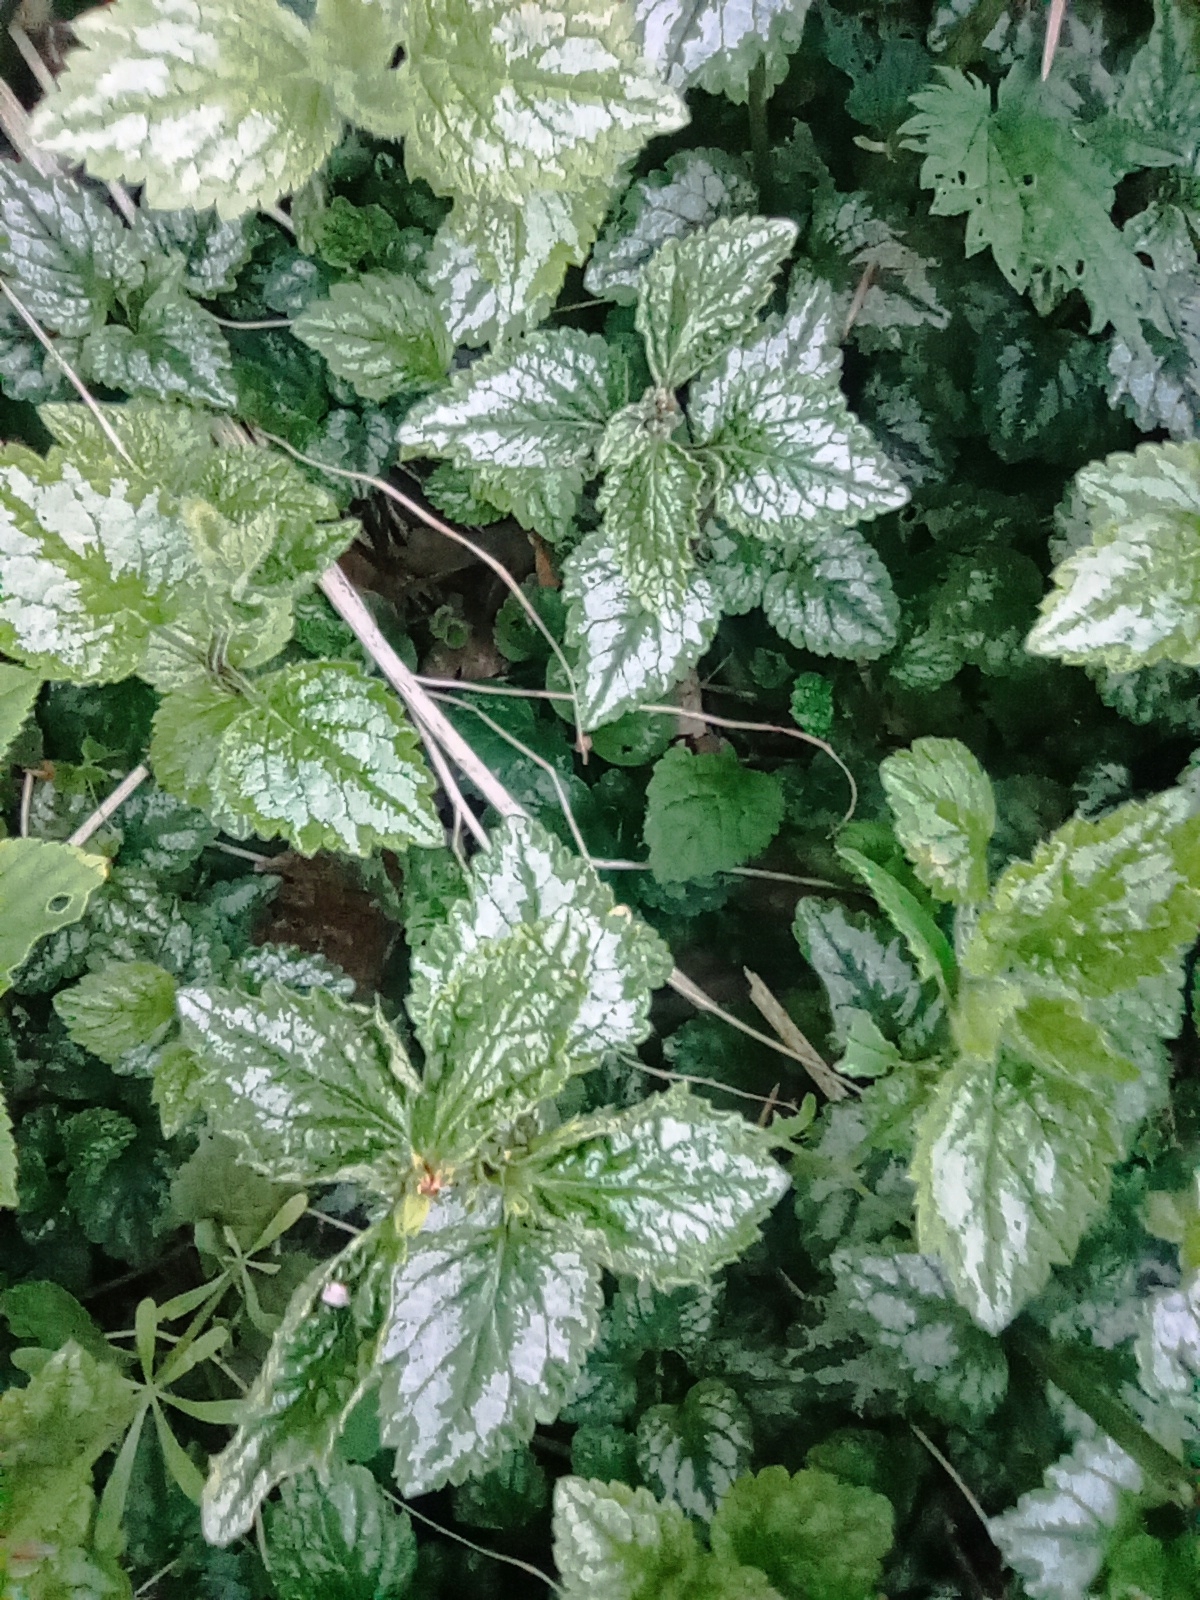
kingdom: Plantae
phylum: Tracheophyta
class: Magnoliopsida
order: Lamiales
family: Lamiaceae
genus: Lamium
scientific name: Lamium galeobdolon
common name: Yellow archangel
